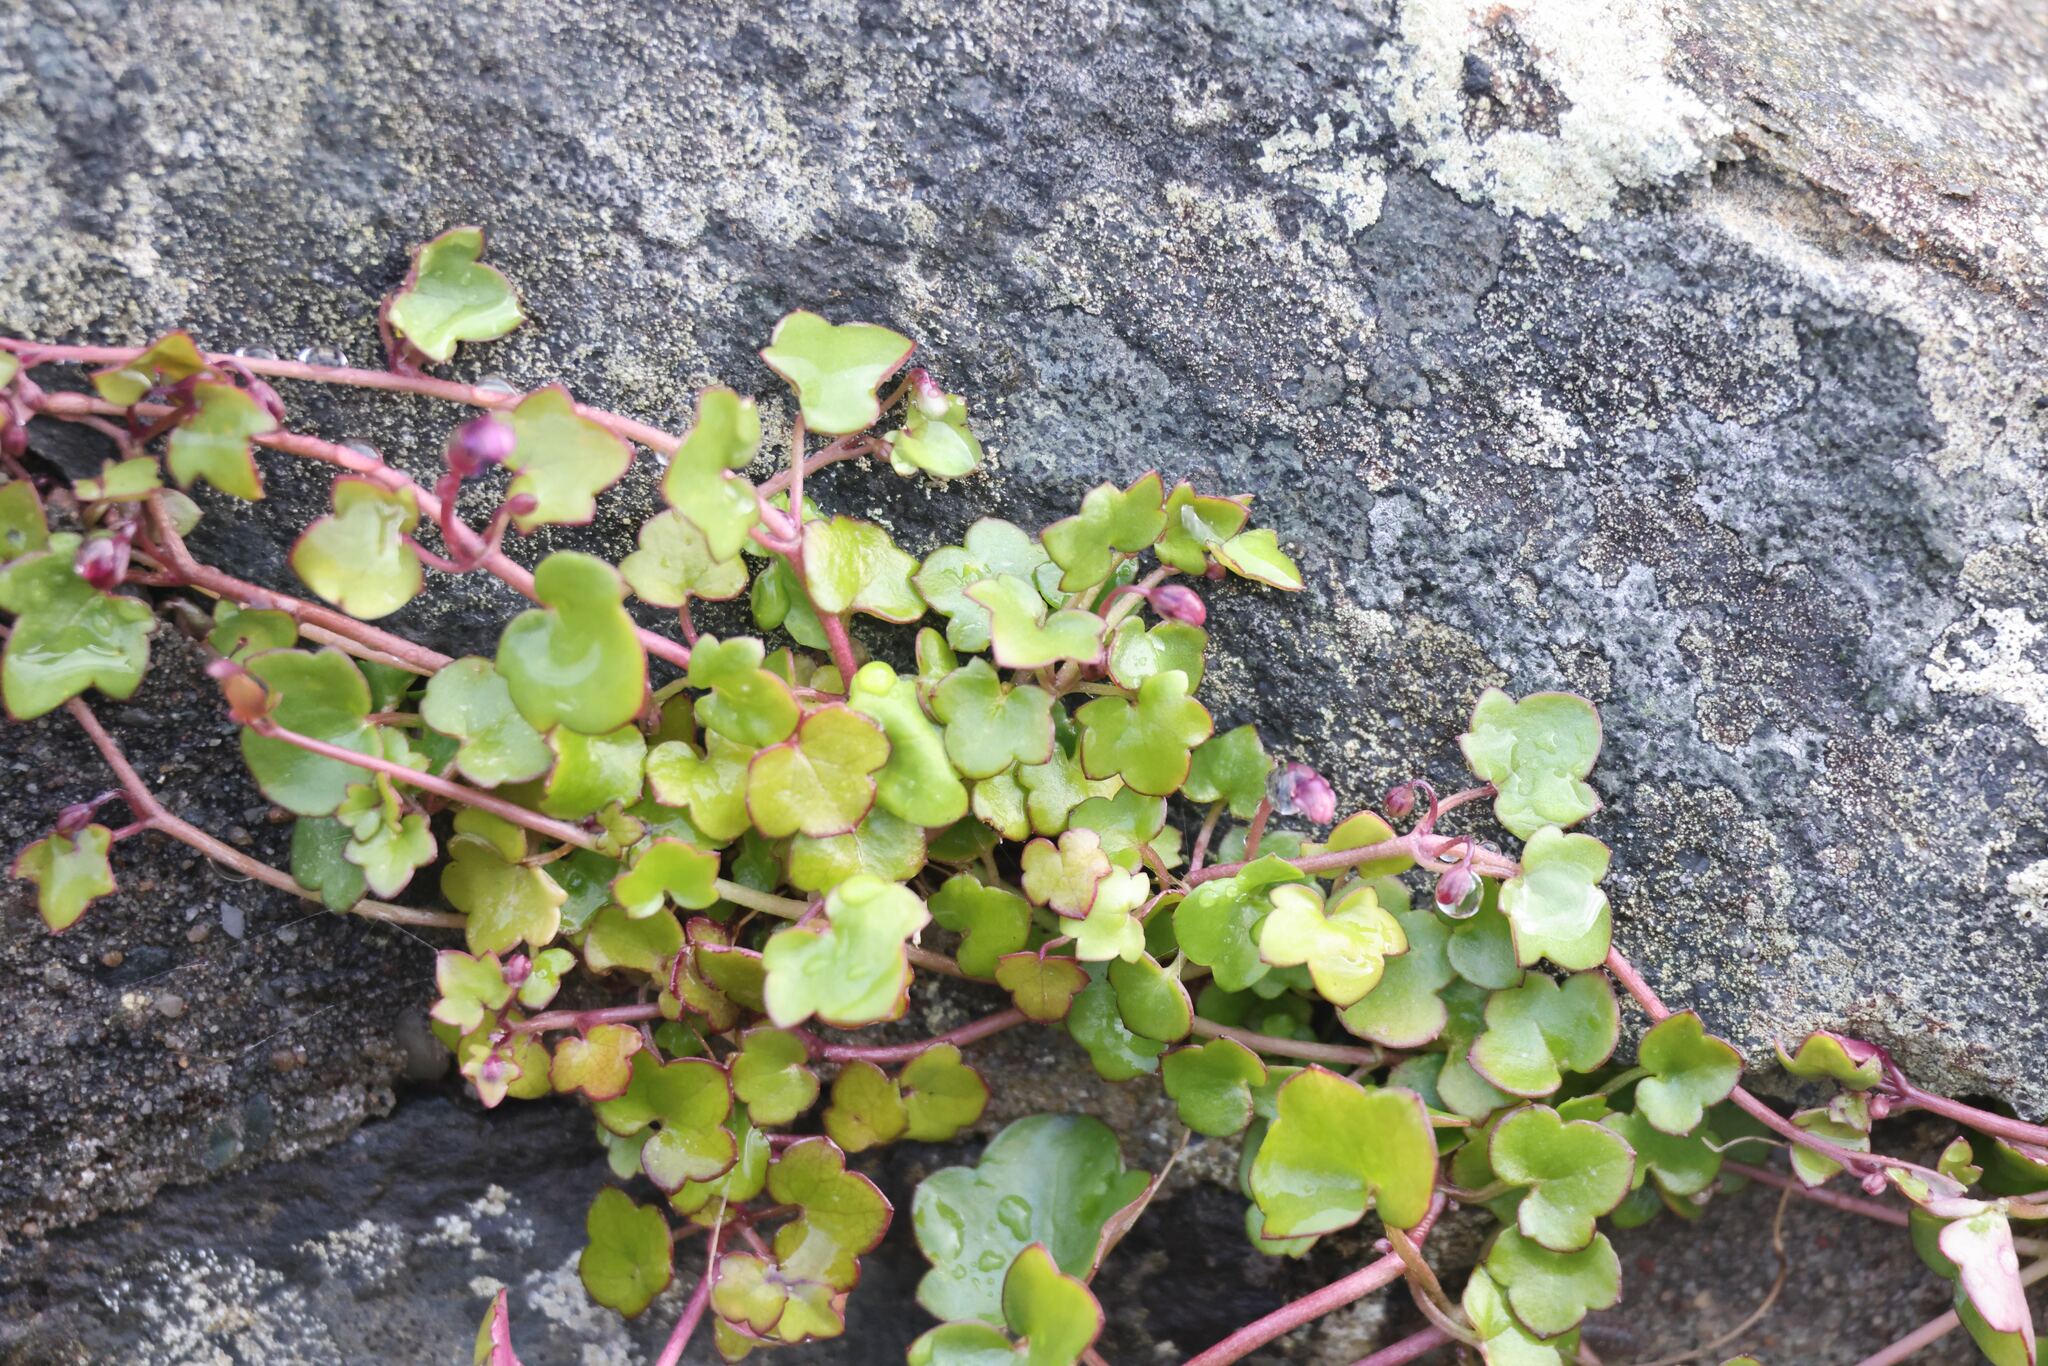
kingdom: Plantae
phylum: Tracheophyta
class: Magnoliopsida
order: Lamiales
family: Plantaginaceae
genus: Cymbalaria
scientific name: Cymbalaria muralis
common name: Ivy-leaved toadflax
